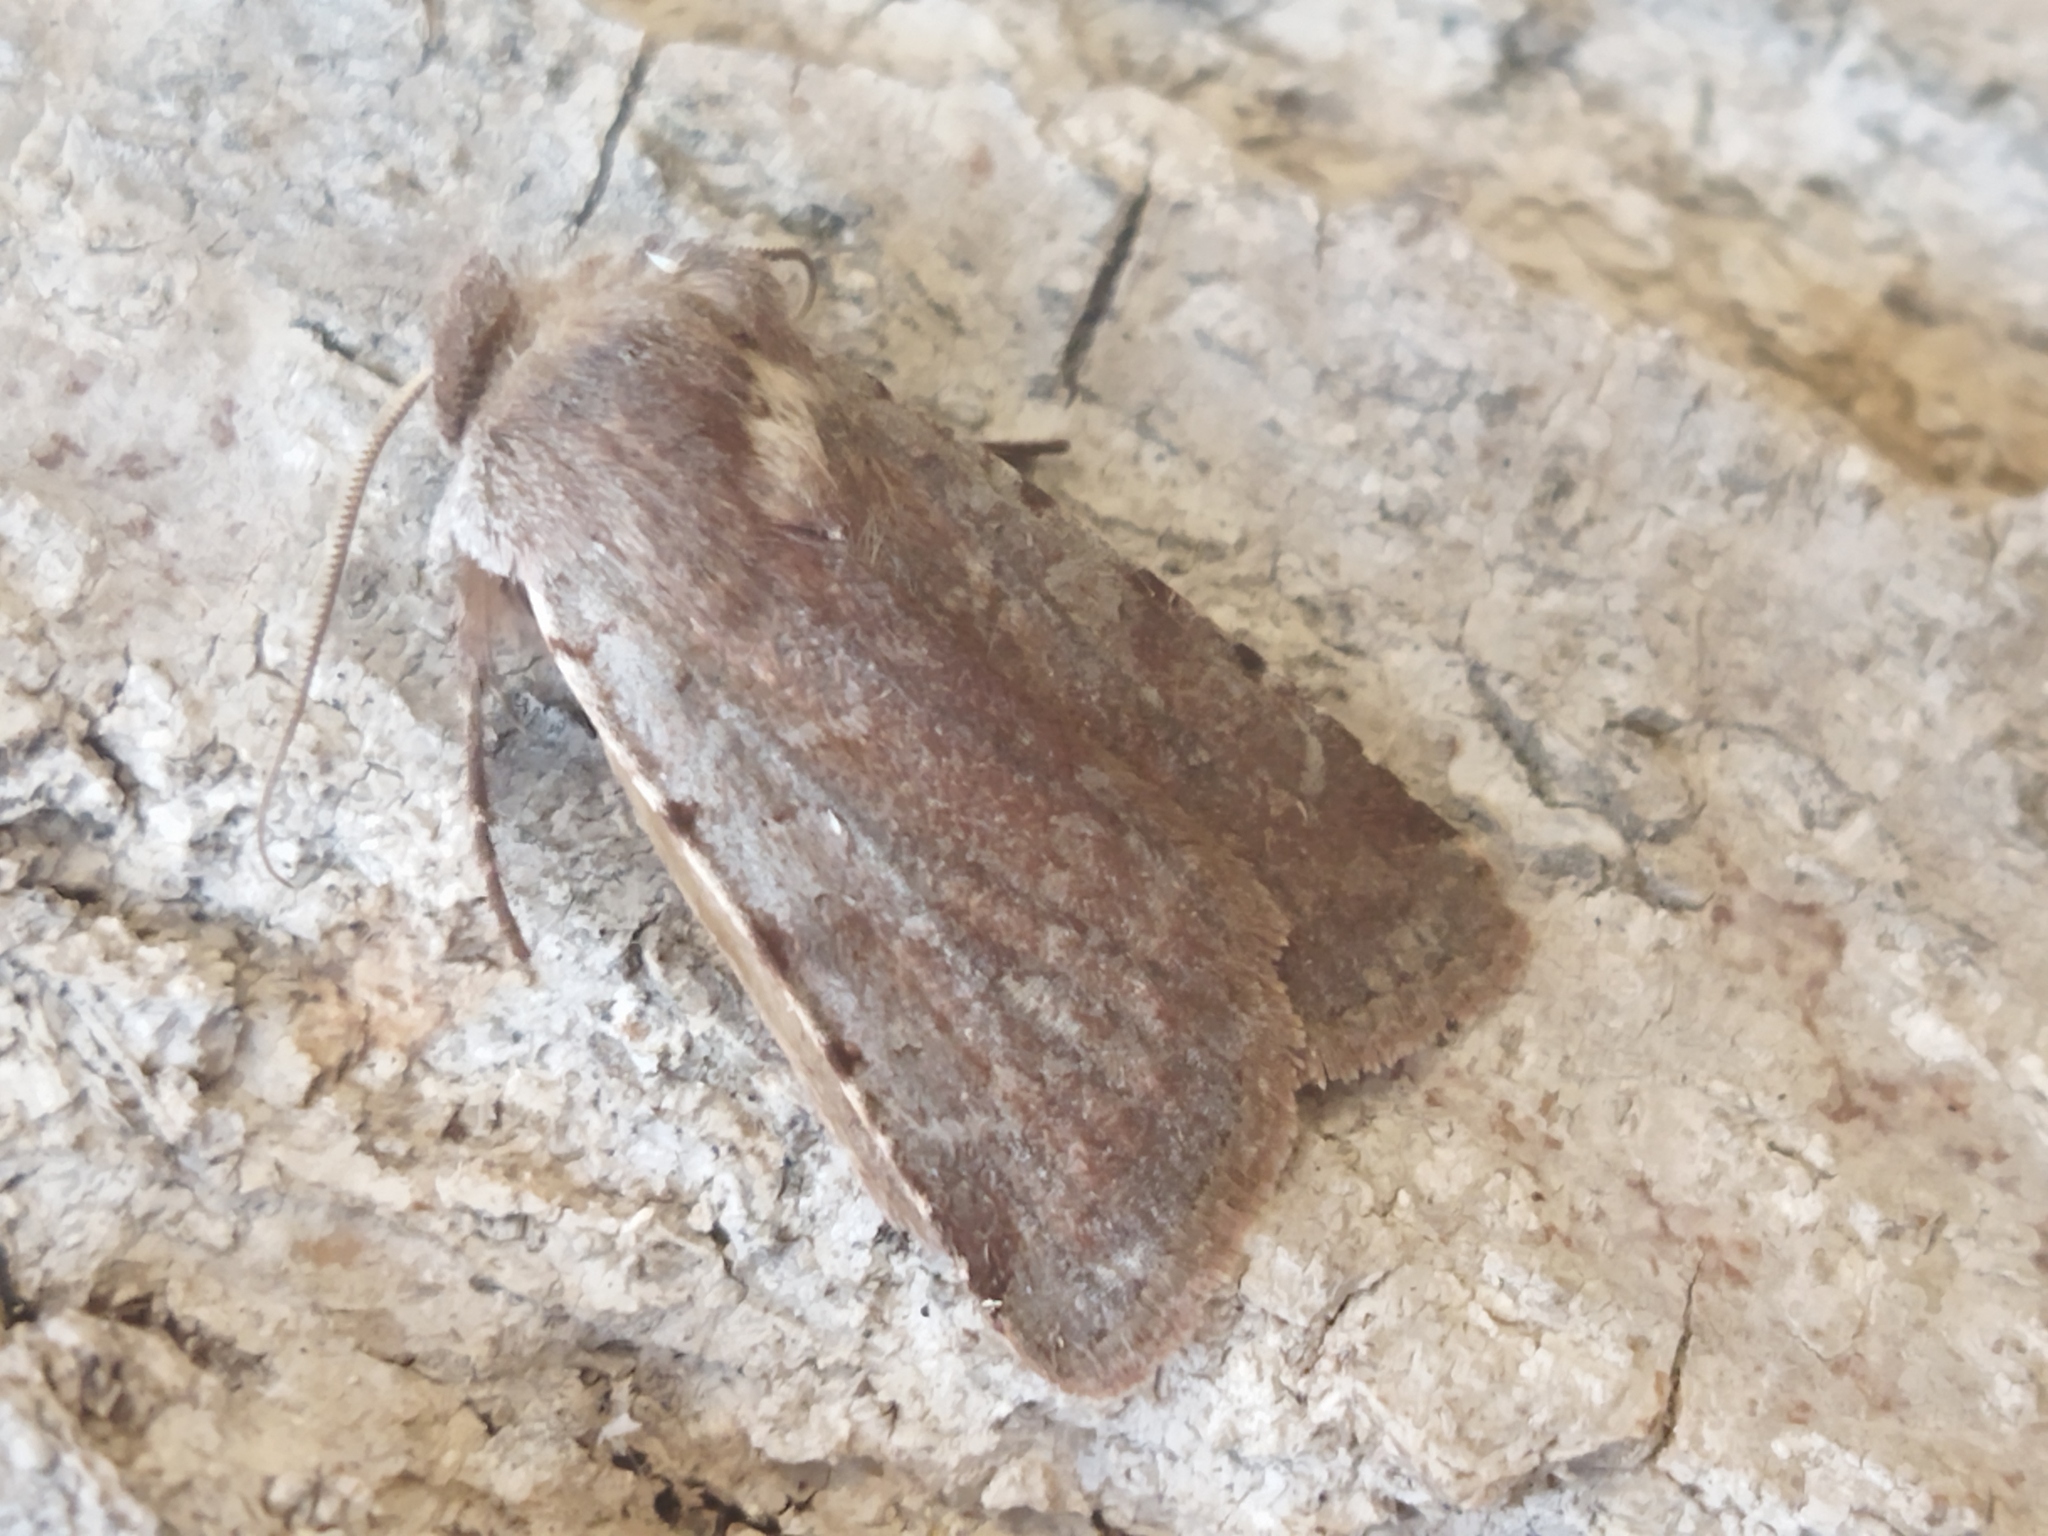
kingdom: Animalia
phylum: Arthropoda
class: Insecta
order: Lepidoptera
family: Noctuidae
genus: Cerastis
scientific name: Cerastis rubricosa
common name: Red chestnut
